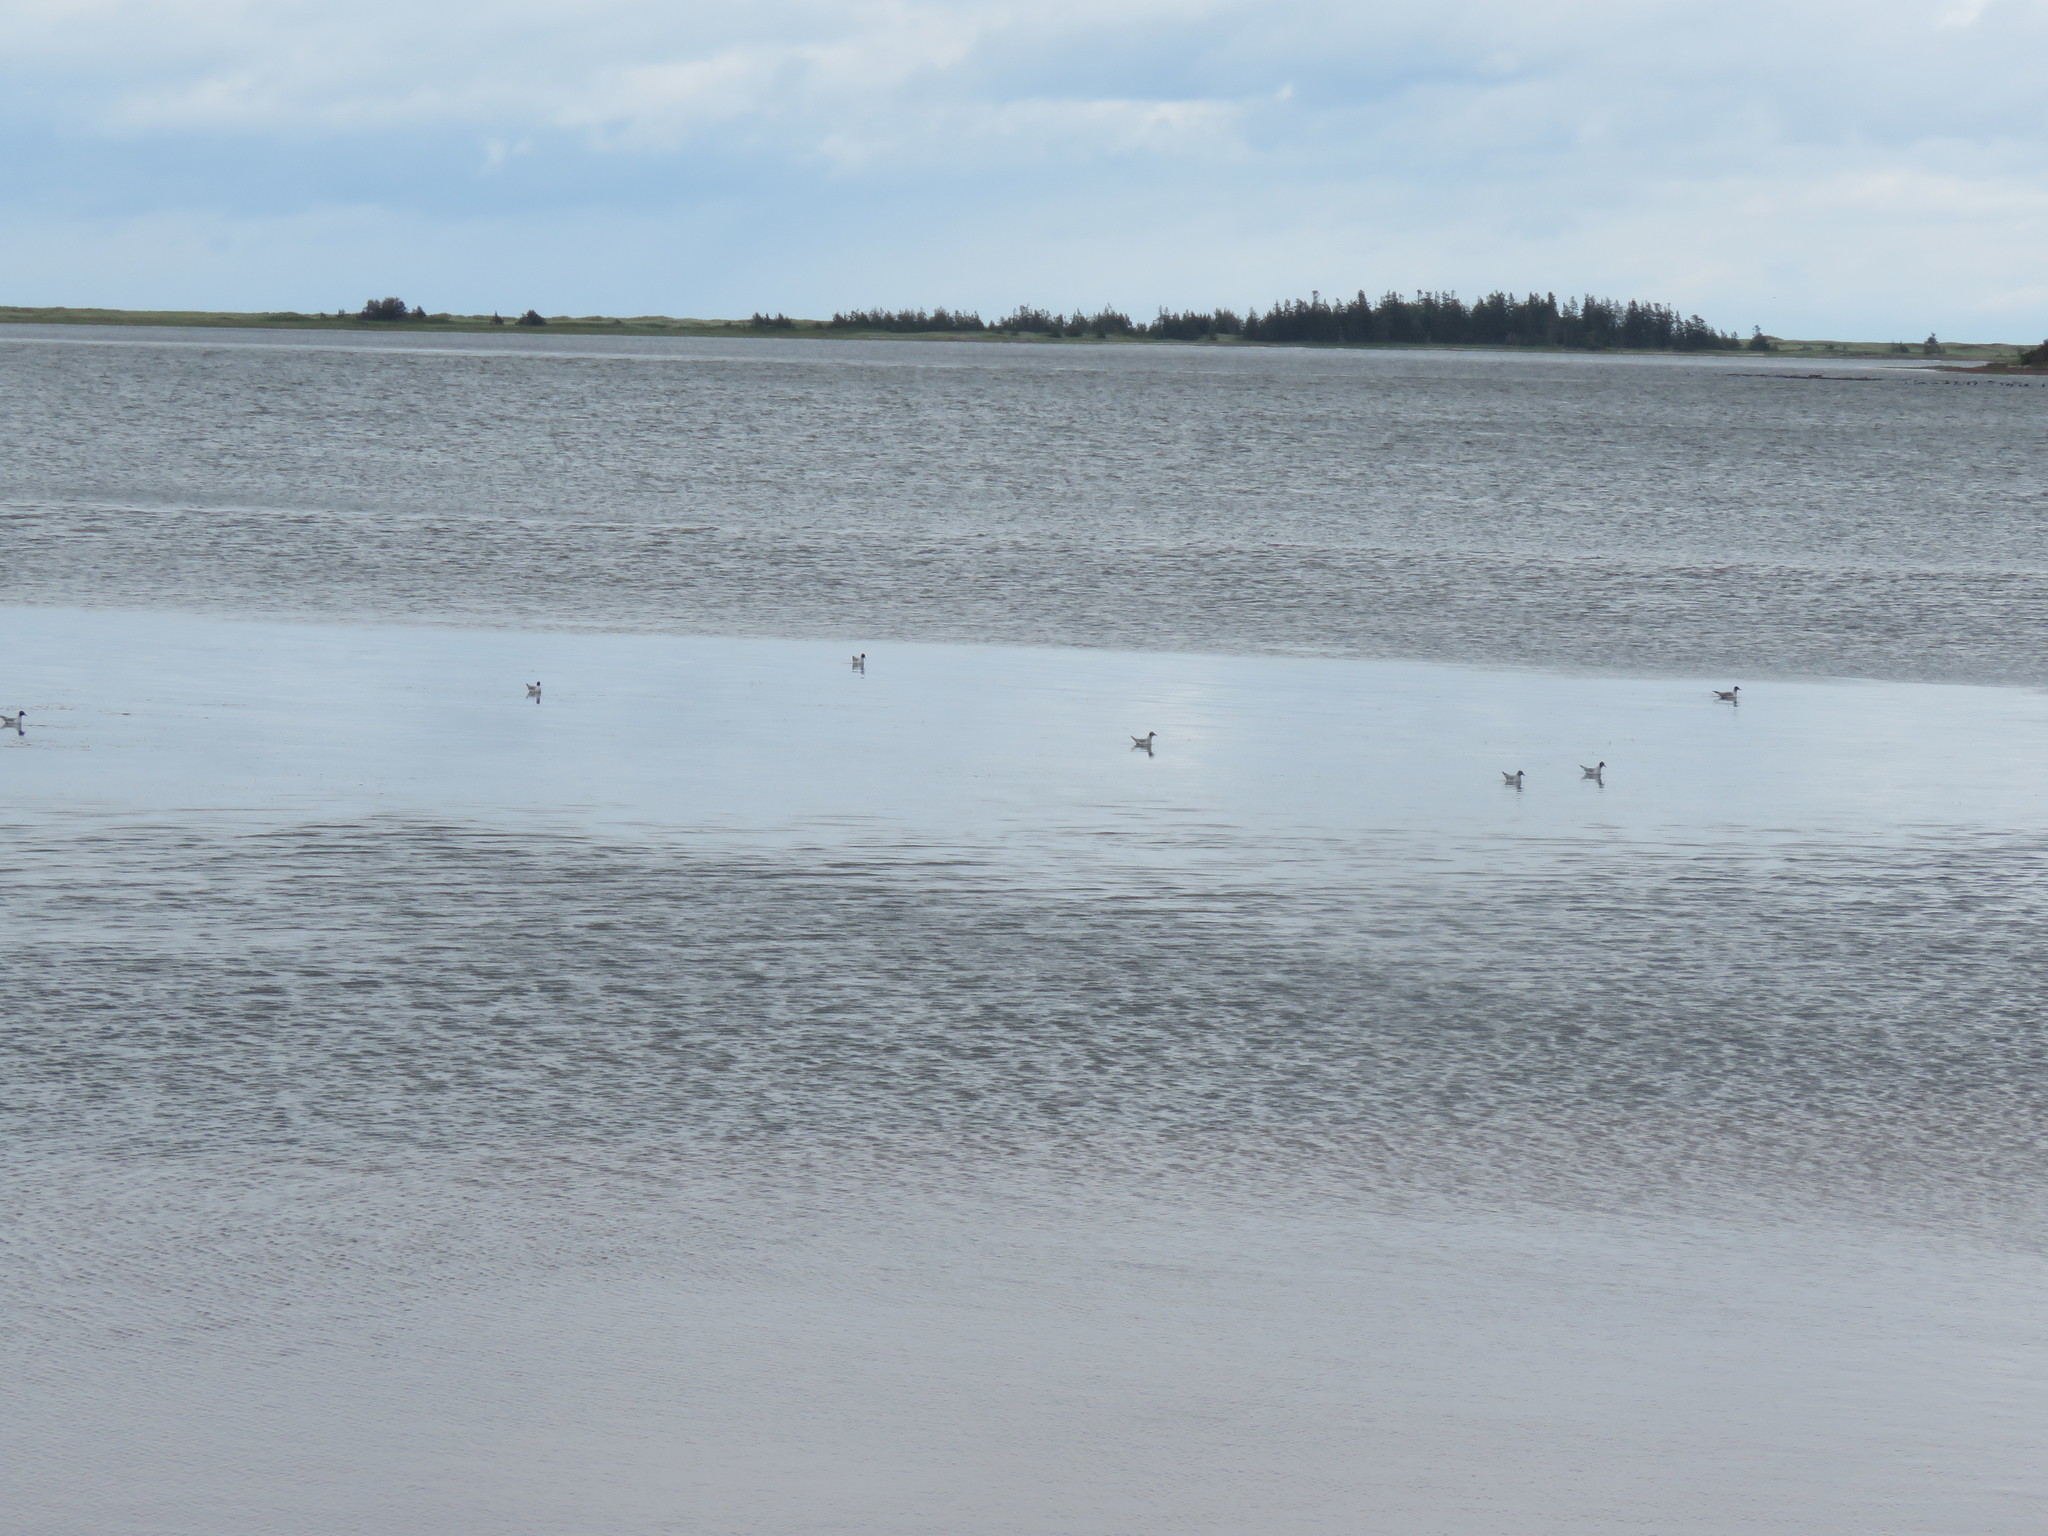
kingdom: Animalia
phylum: Chordata
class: Aves
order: Charadriiformes
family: Laridae
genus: Chroicocephalus
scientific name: Chroicocephalus philadelphia
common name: Bonaparte's gull
